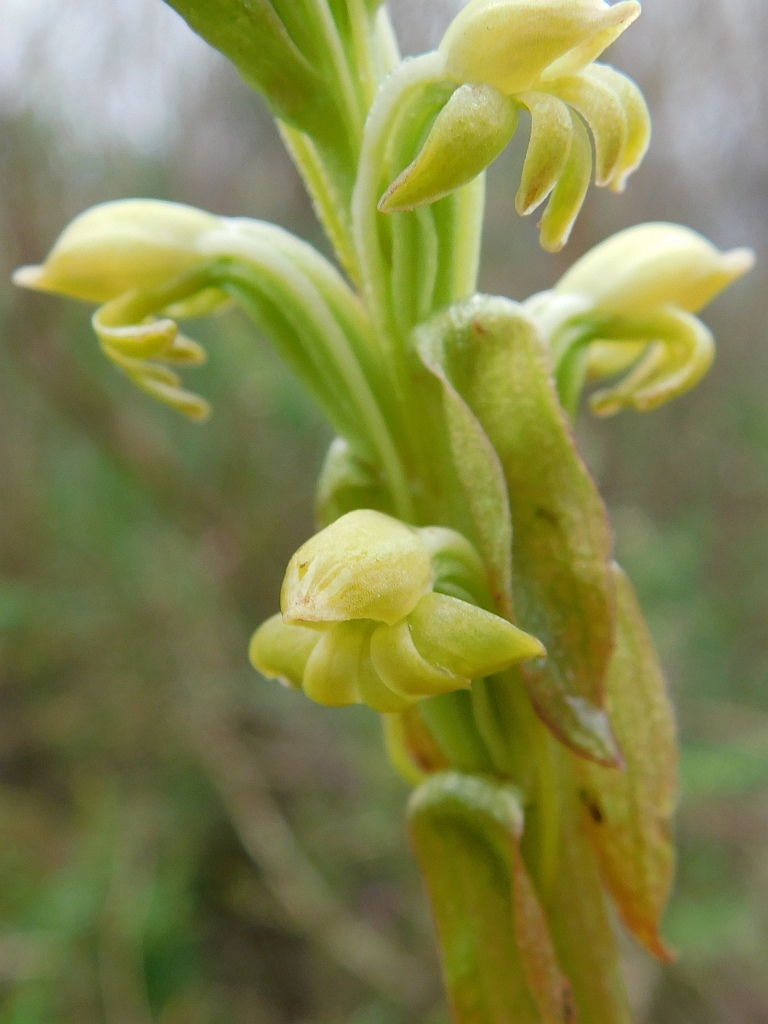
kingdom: Plantae
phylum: Tracheophyta
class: Liliopsida
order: Asparagales
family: Orchidaceae
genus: Satyrium
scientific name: Satyrium bicorne
